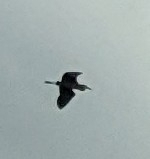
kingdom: Animalia
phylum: Chordata
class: Aves
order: Pelecaniformes
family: Ardeidae
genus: Ardea
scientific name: Ardea herodias
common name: Great blue heron
